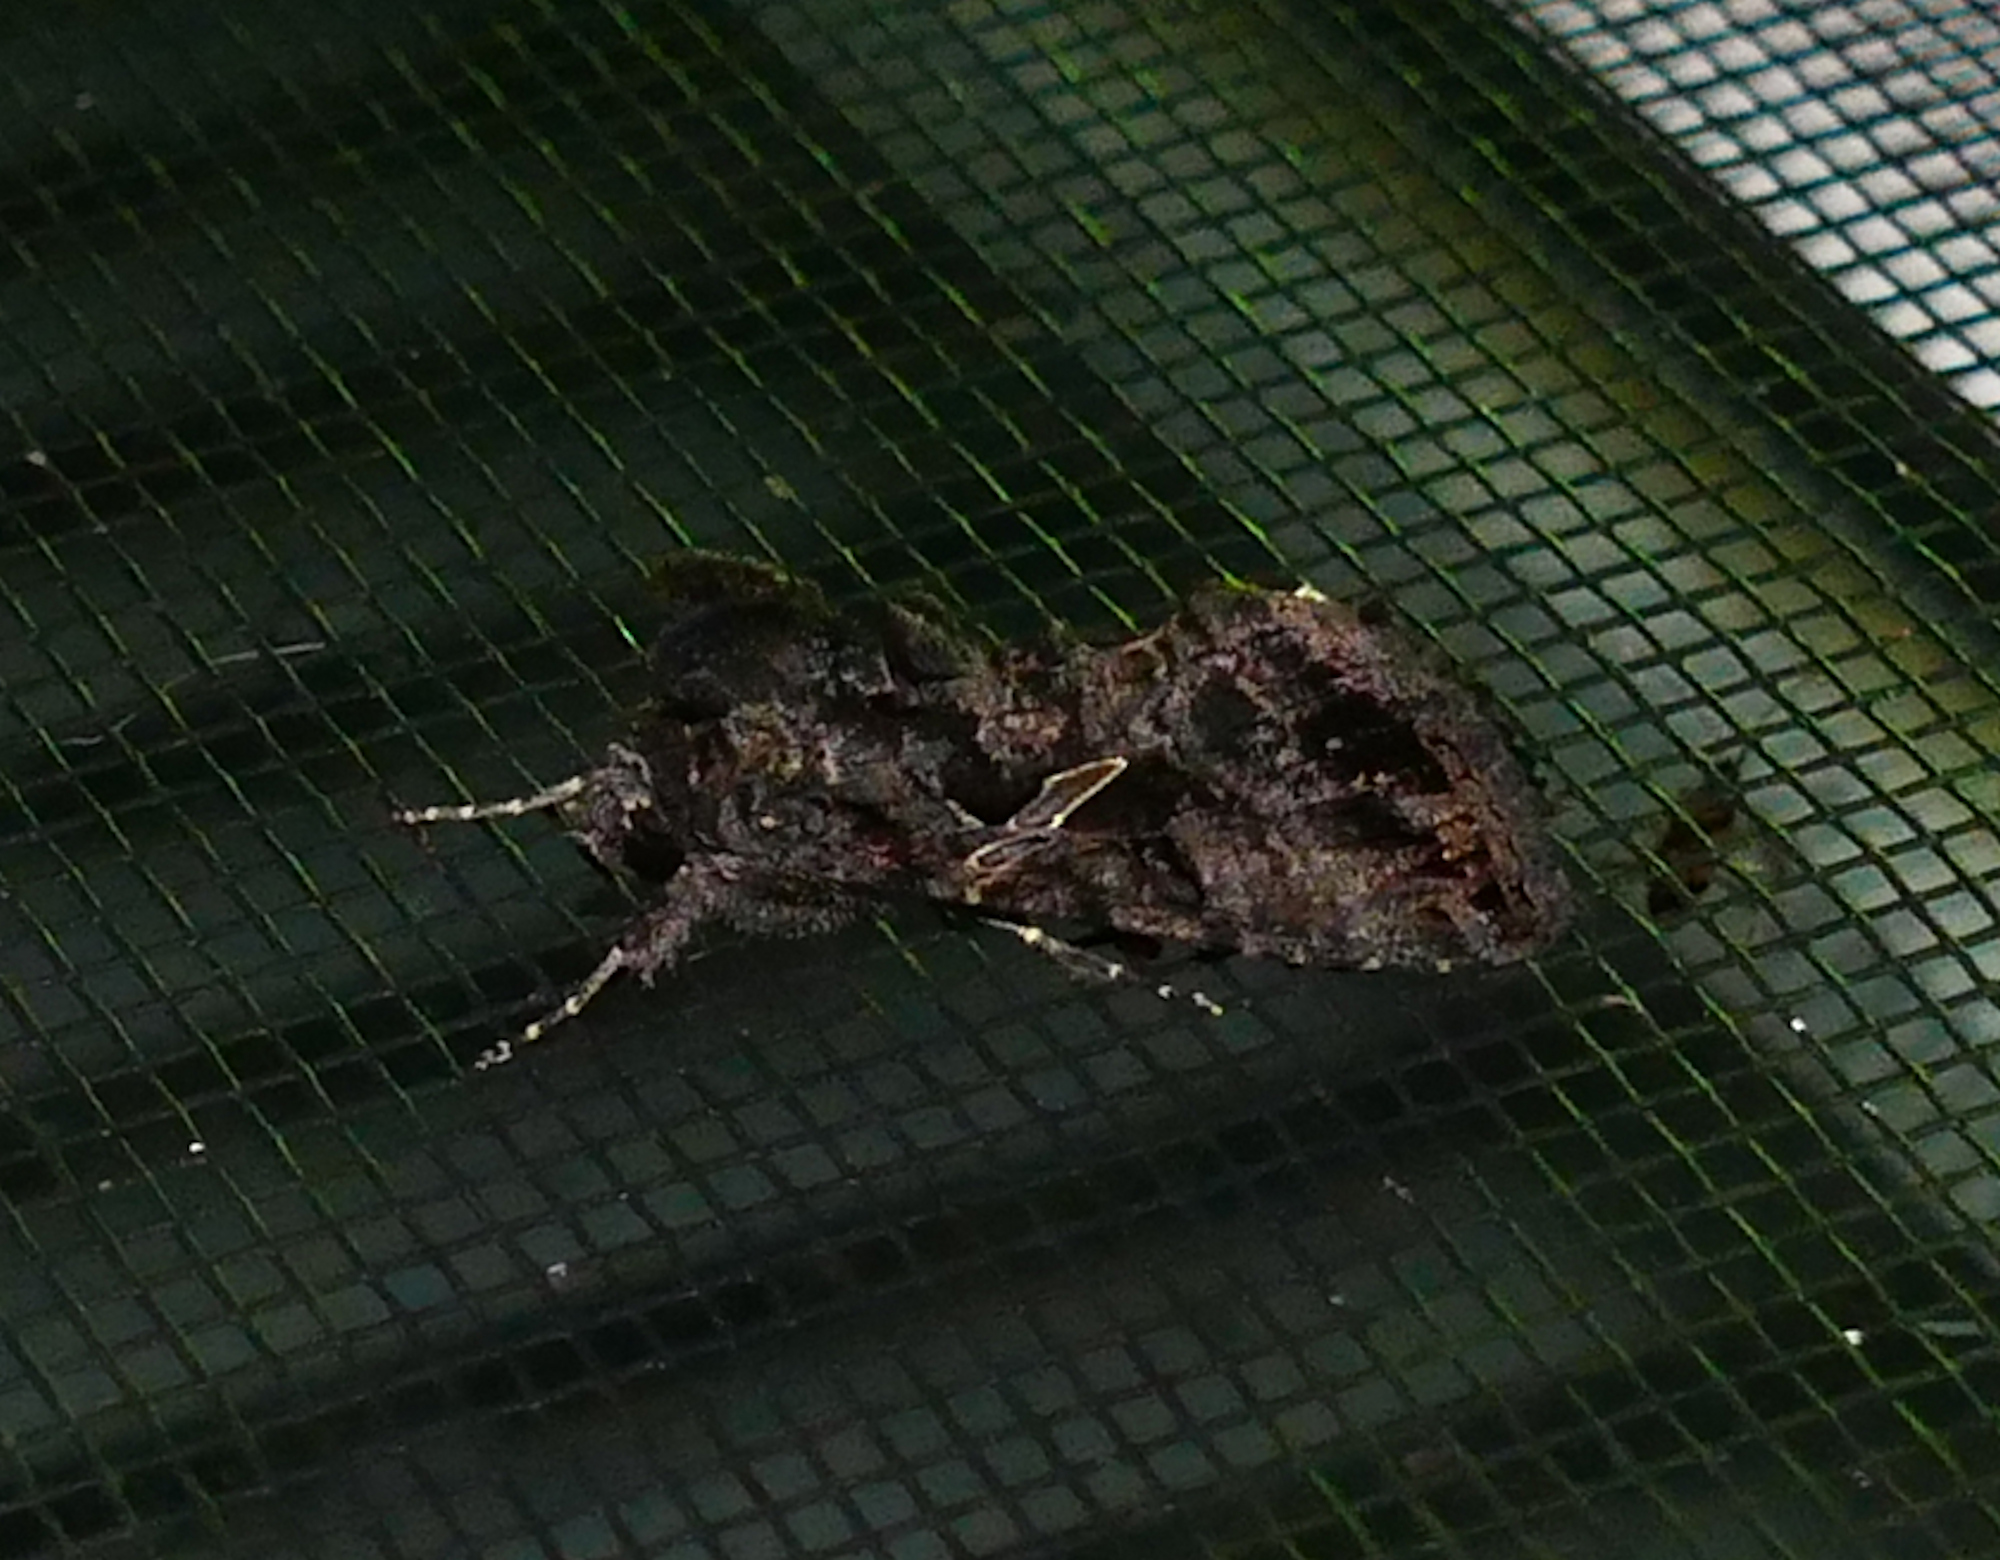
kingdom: Animalia
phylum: Arthropoda
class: Insecta
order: Lepidoptera
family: Noctuidae
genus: Ctenoplusia
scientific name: Ctenoplusia oxygramma
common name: Sharp-stigma looper moth
